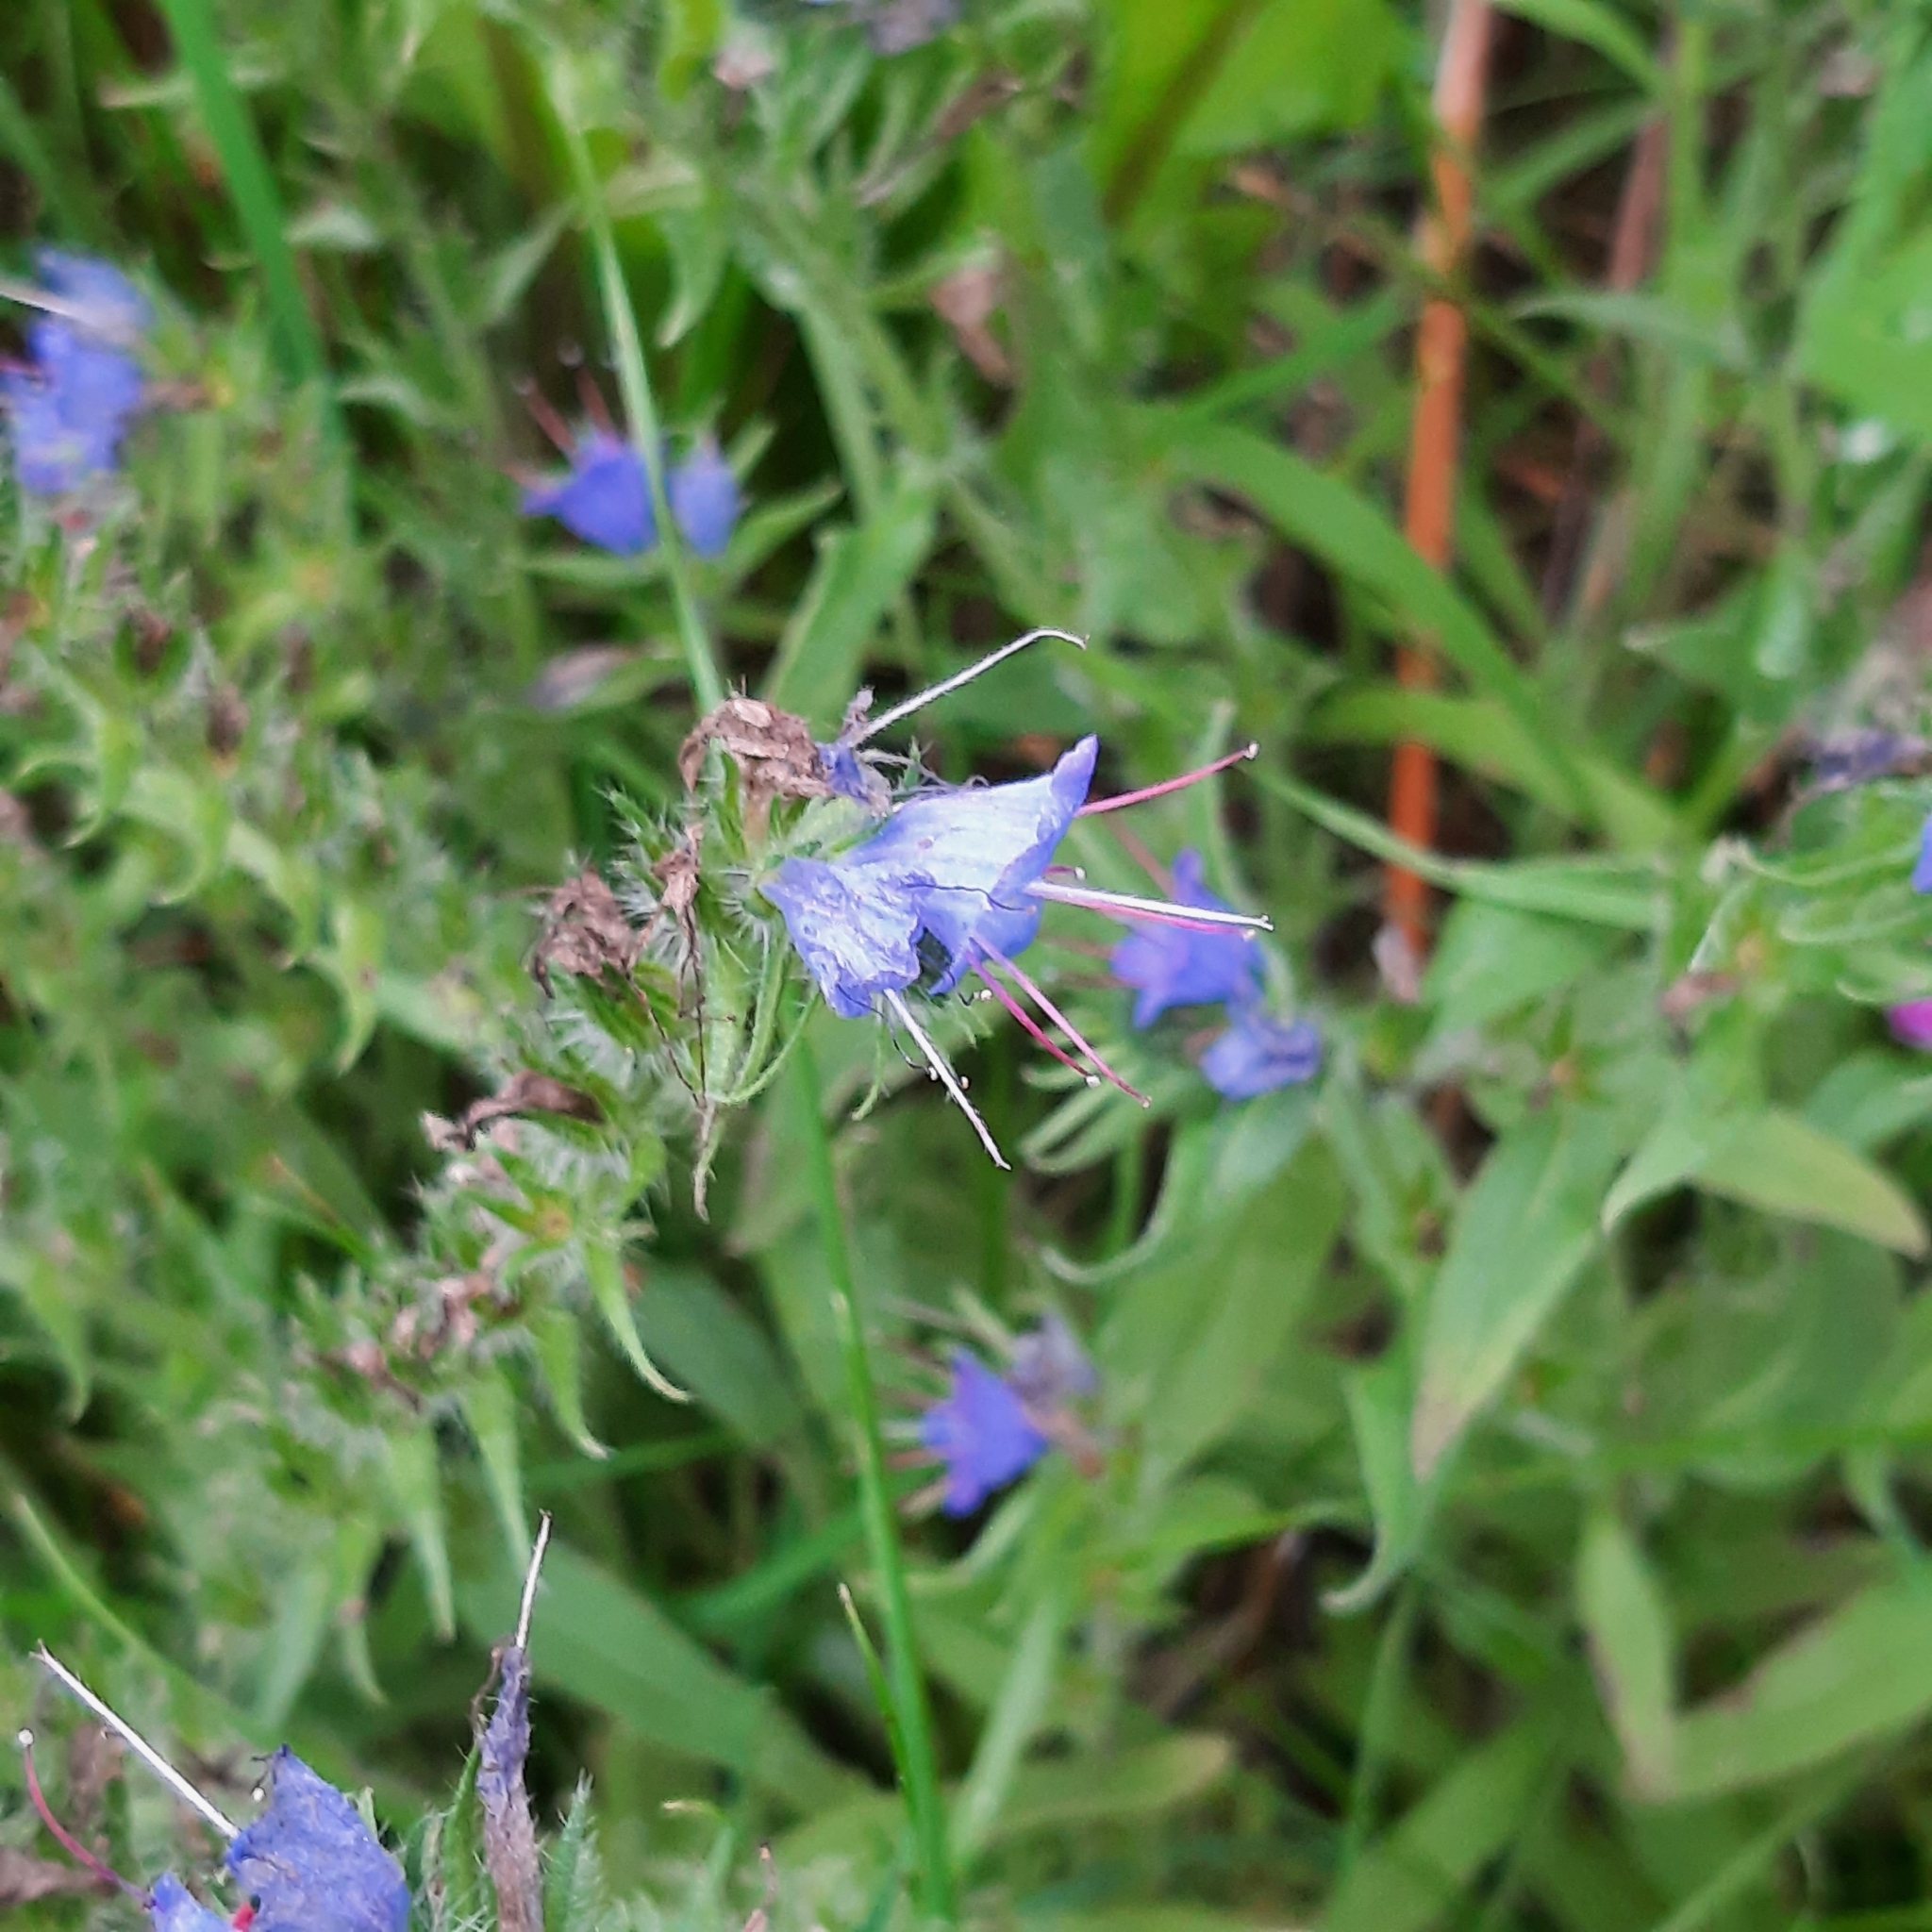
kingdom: Plantae
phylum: Tracheophyta
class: Magnoliopsida
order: Boraginales
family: Boraginaceae
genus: Echium
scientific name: Echium vulgare
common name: Common viper's bugloss
